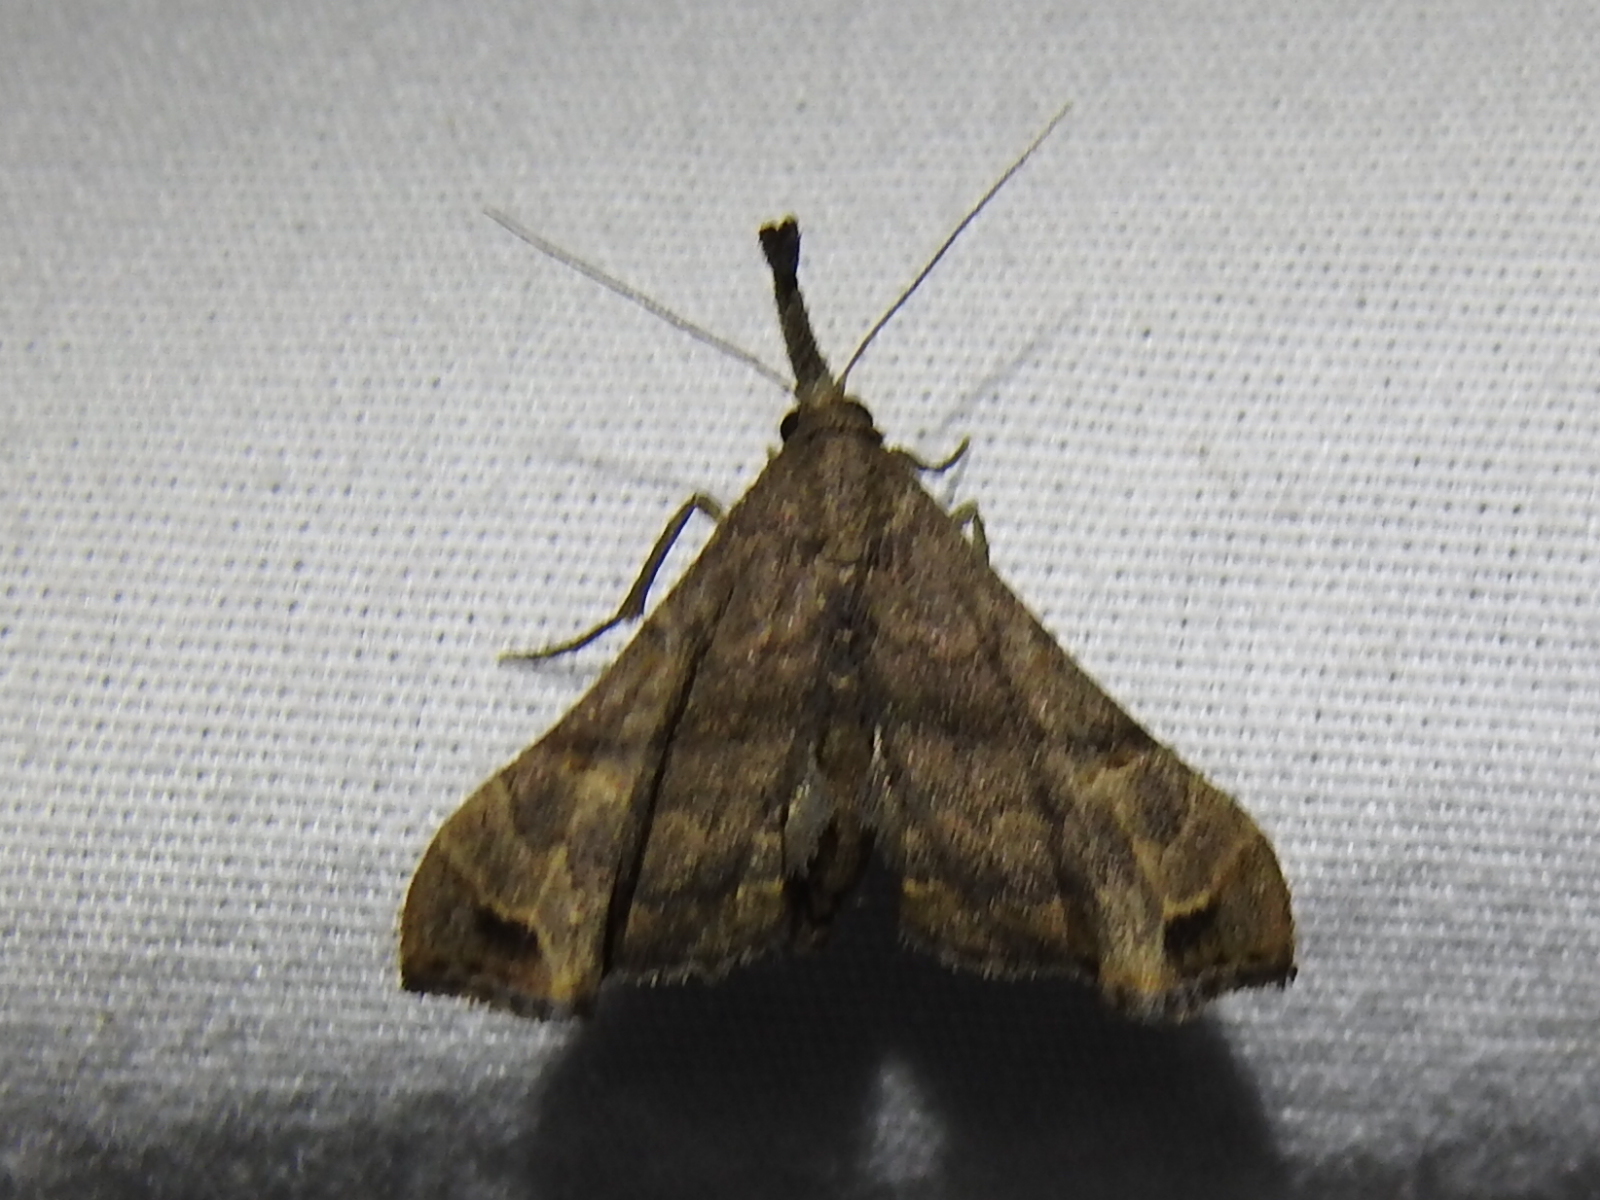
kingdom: Animalia
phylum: Arthropoda
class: Insecta
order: Lepidoptera
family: Erebidae
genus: Palthis
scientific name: Palthis asopialis
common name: Faint-spotted palthis moth
